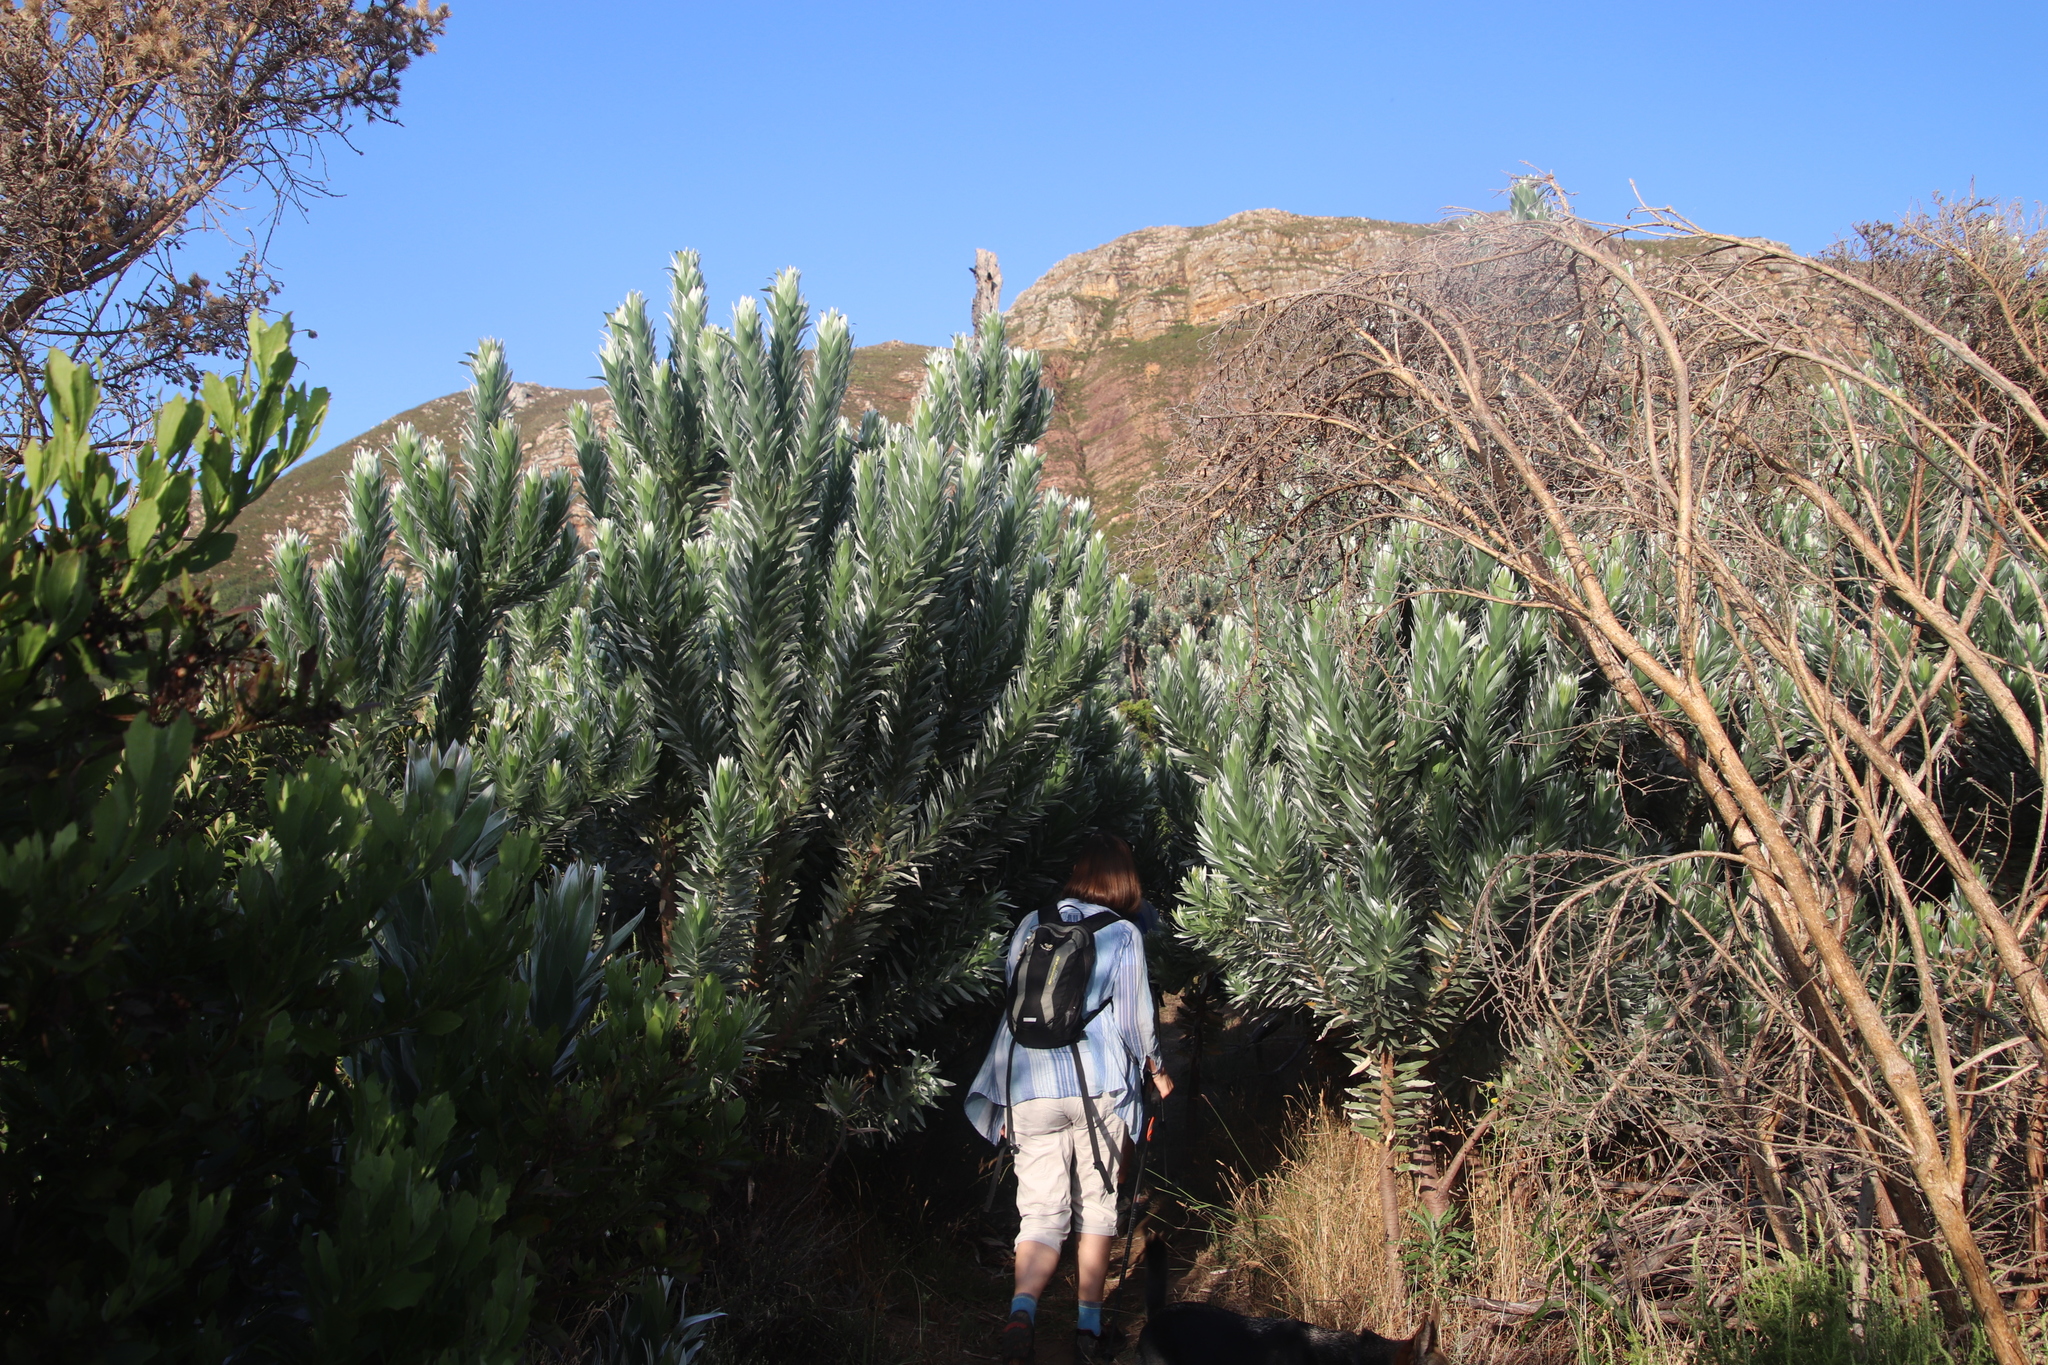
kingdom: Plantae
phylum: Tracheophyta
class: Magnoliopsida
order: Proteales
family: Proteaceae
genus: Leucadendron
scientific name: Leucadendron argenteum
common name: Cape silver tree
